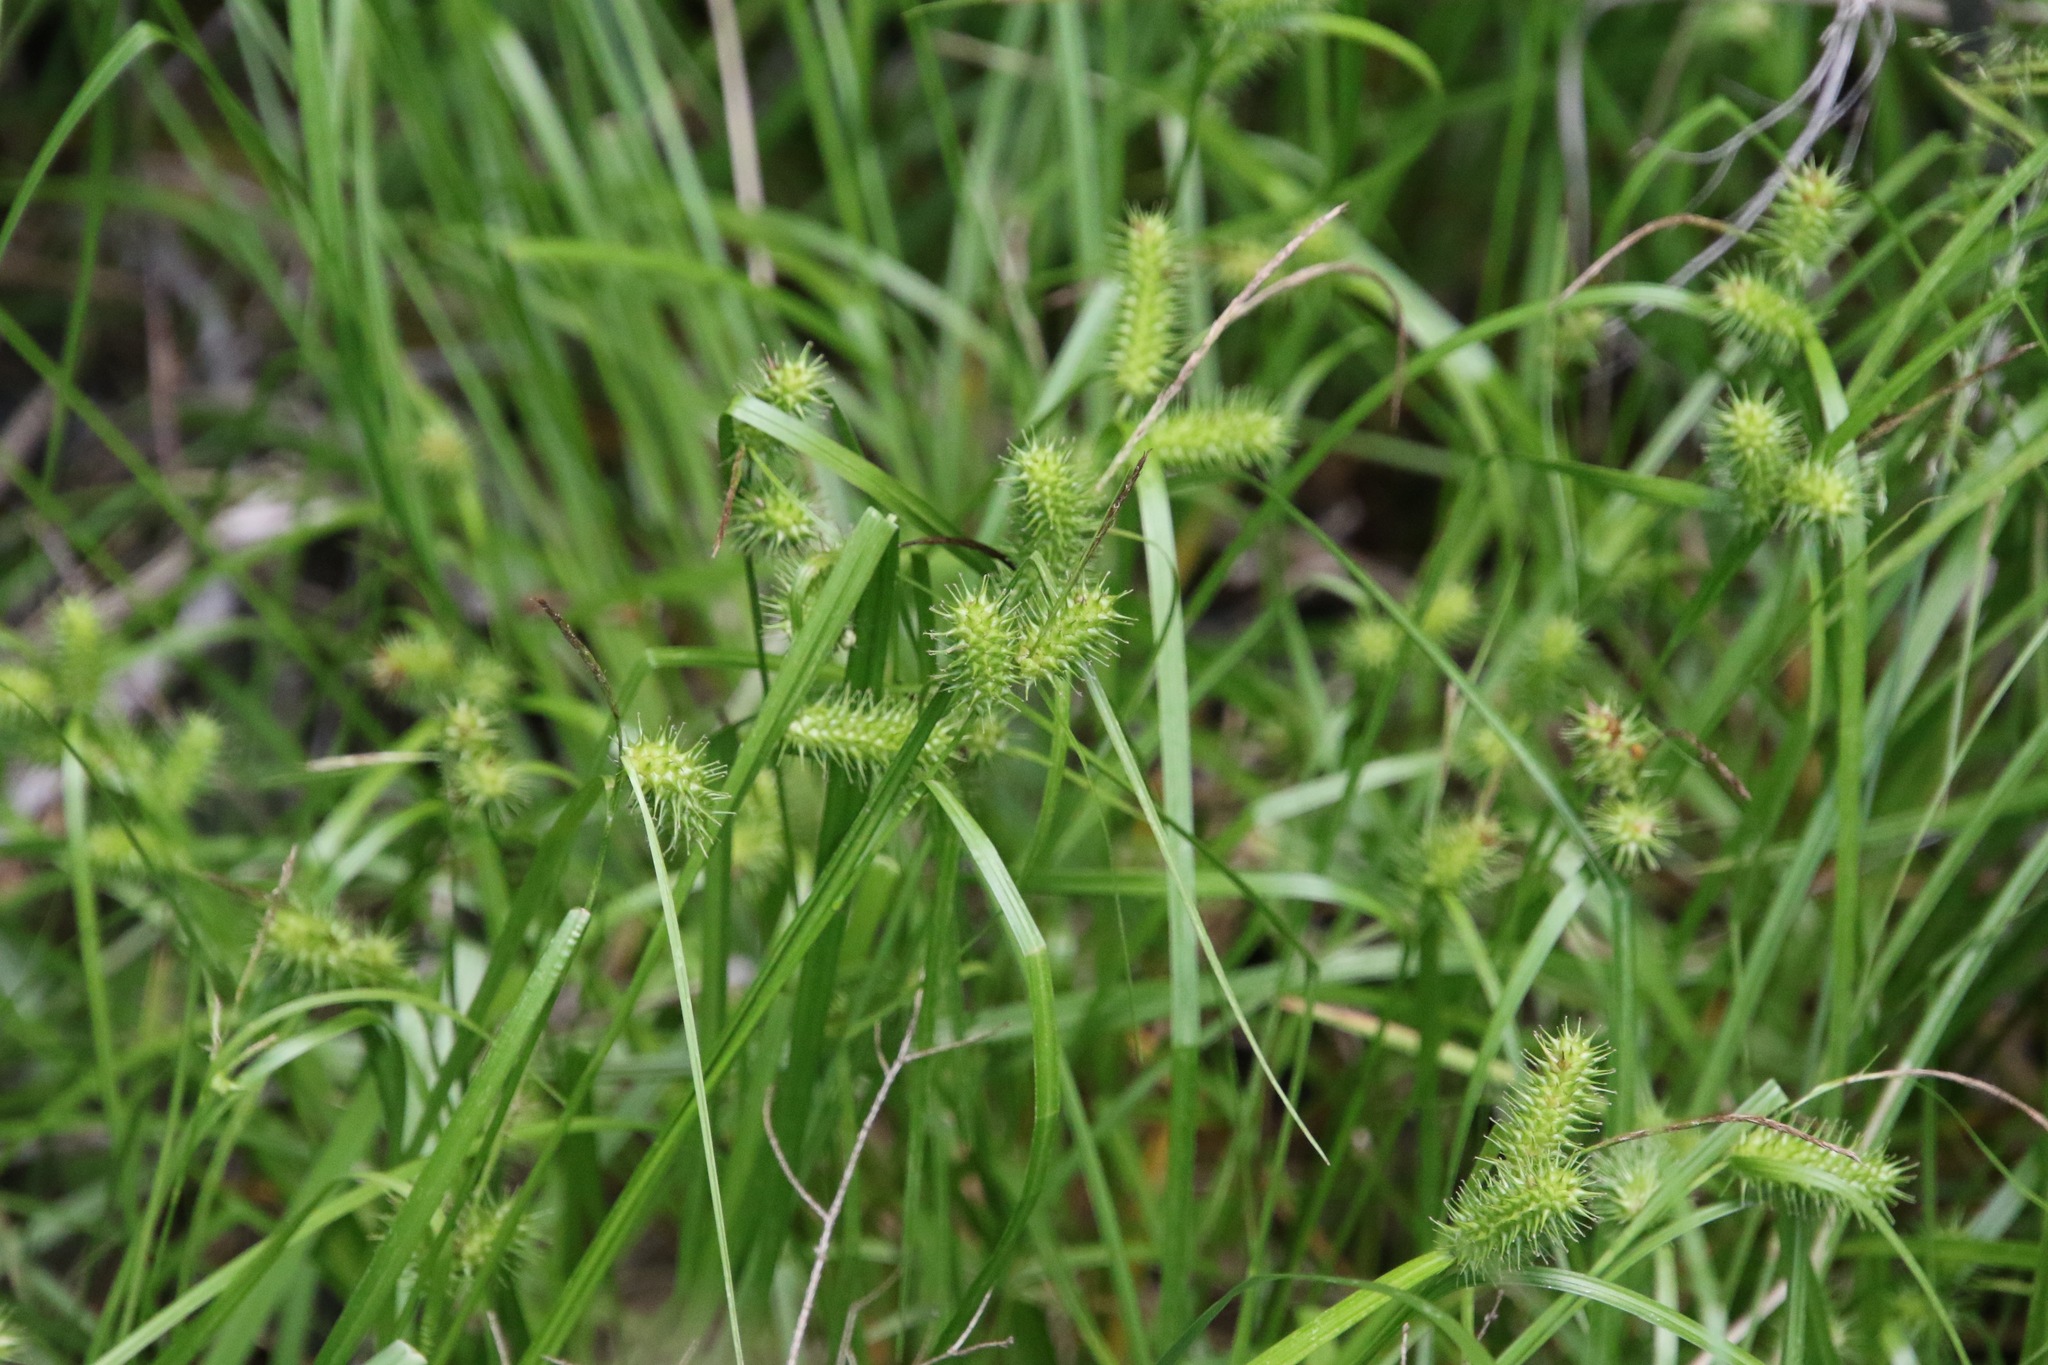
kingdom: Plantae
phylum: Tracheophyta
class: Liliopsida
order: Poales
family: Cyperaceae
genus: Carex
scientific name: Carex lurida
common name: Sallow sedge
